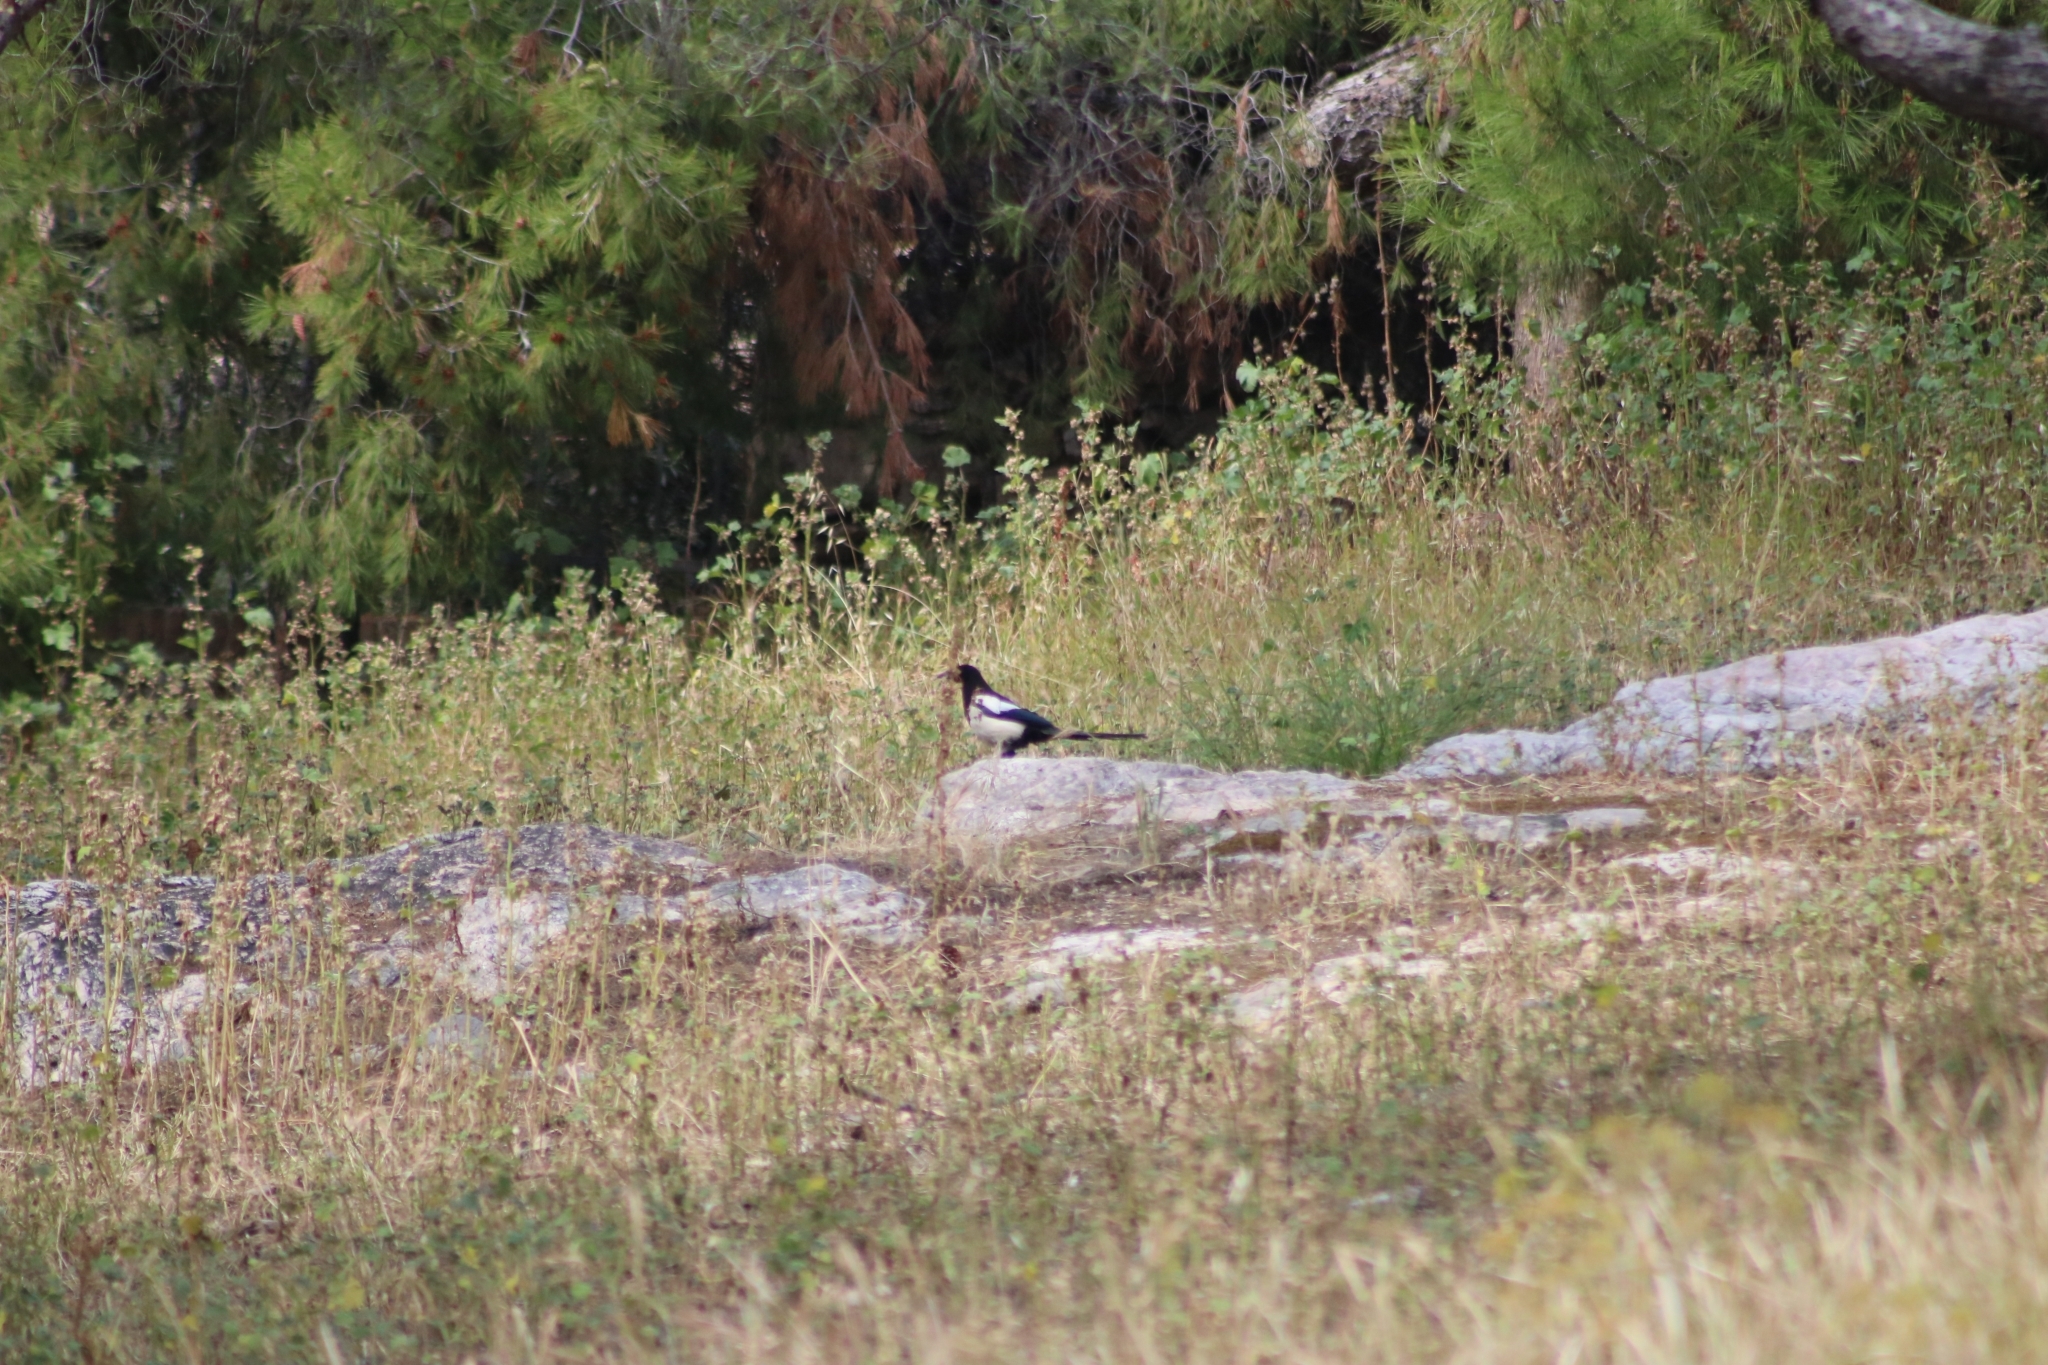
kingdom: Animalia
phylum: Chordata
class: Aves
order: Passeriformes
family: Corvidae
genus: Pica
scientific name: Pica pica
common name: Eurasian magpie
